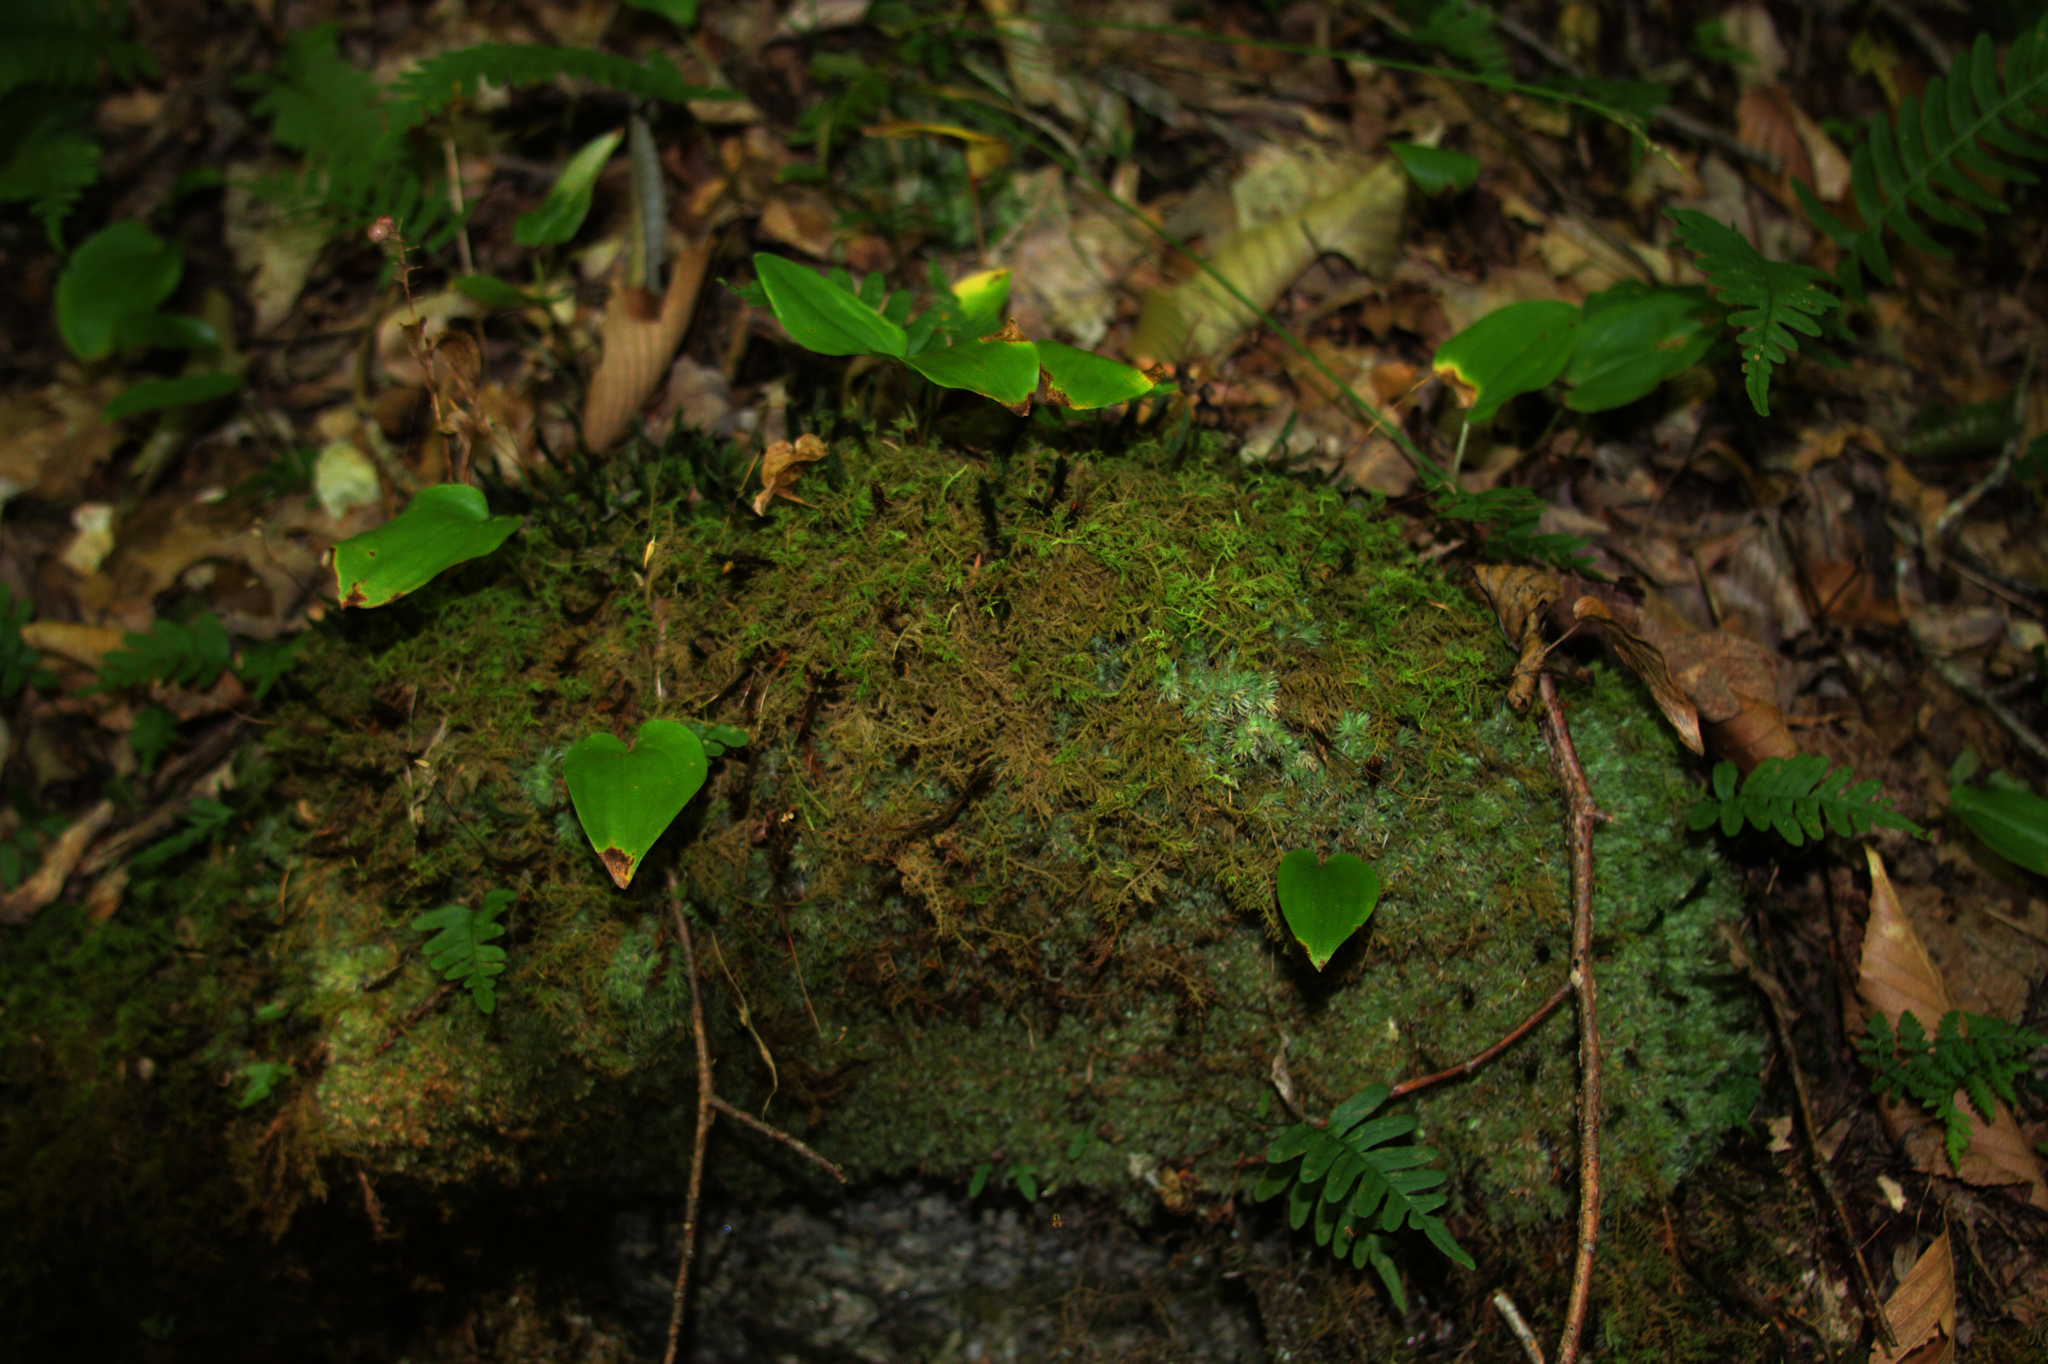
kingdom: Plantae
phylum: Tracheophyta
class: Liliopsida
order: Asparagales
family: Asparagaceae
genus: Maianthemum
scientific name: Maianthemum canadense
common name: False lily-of-the-valley
